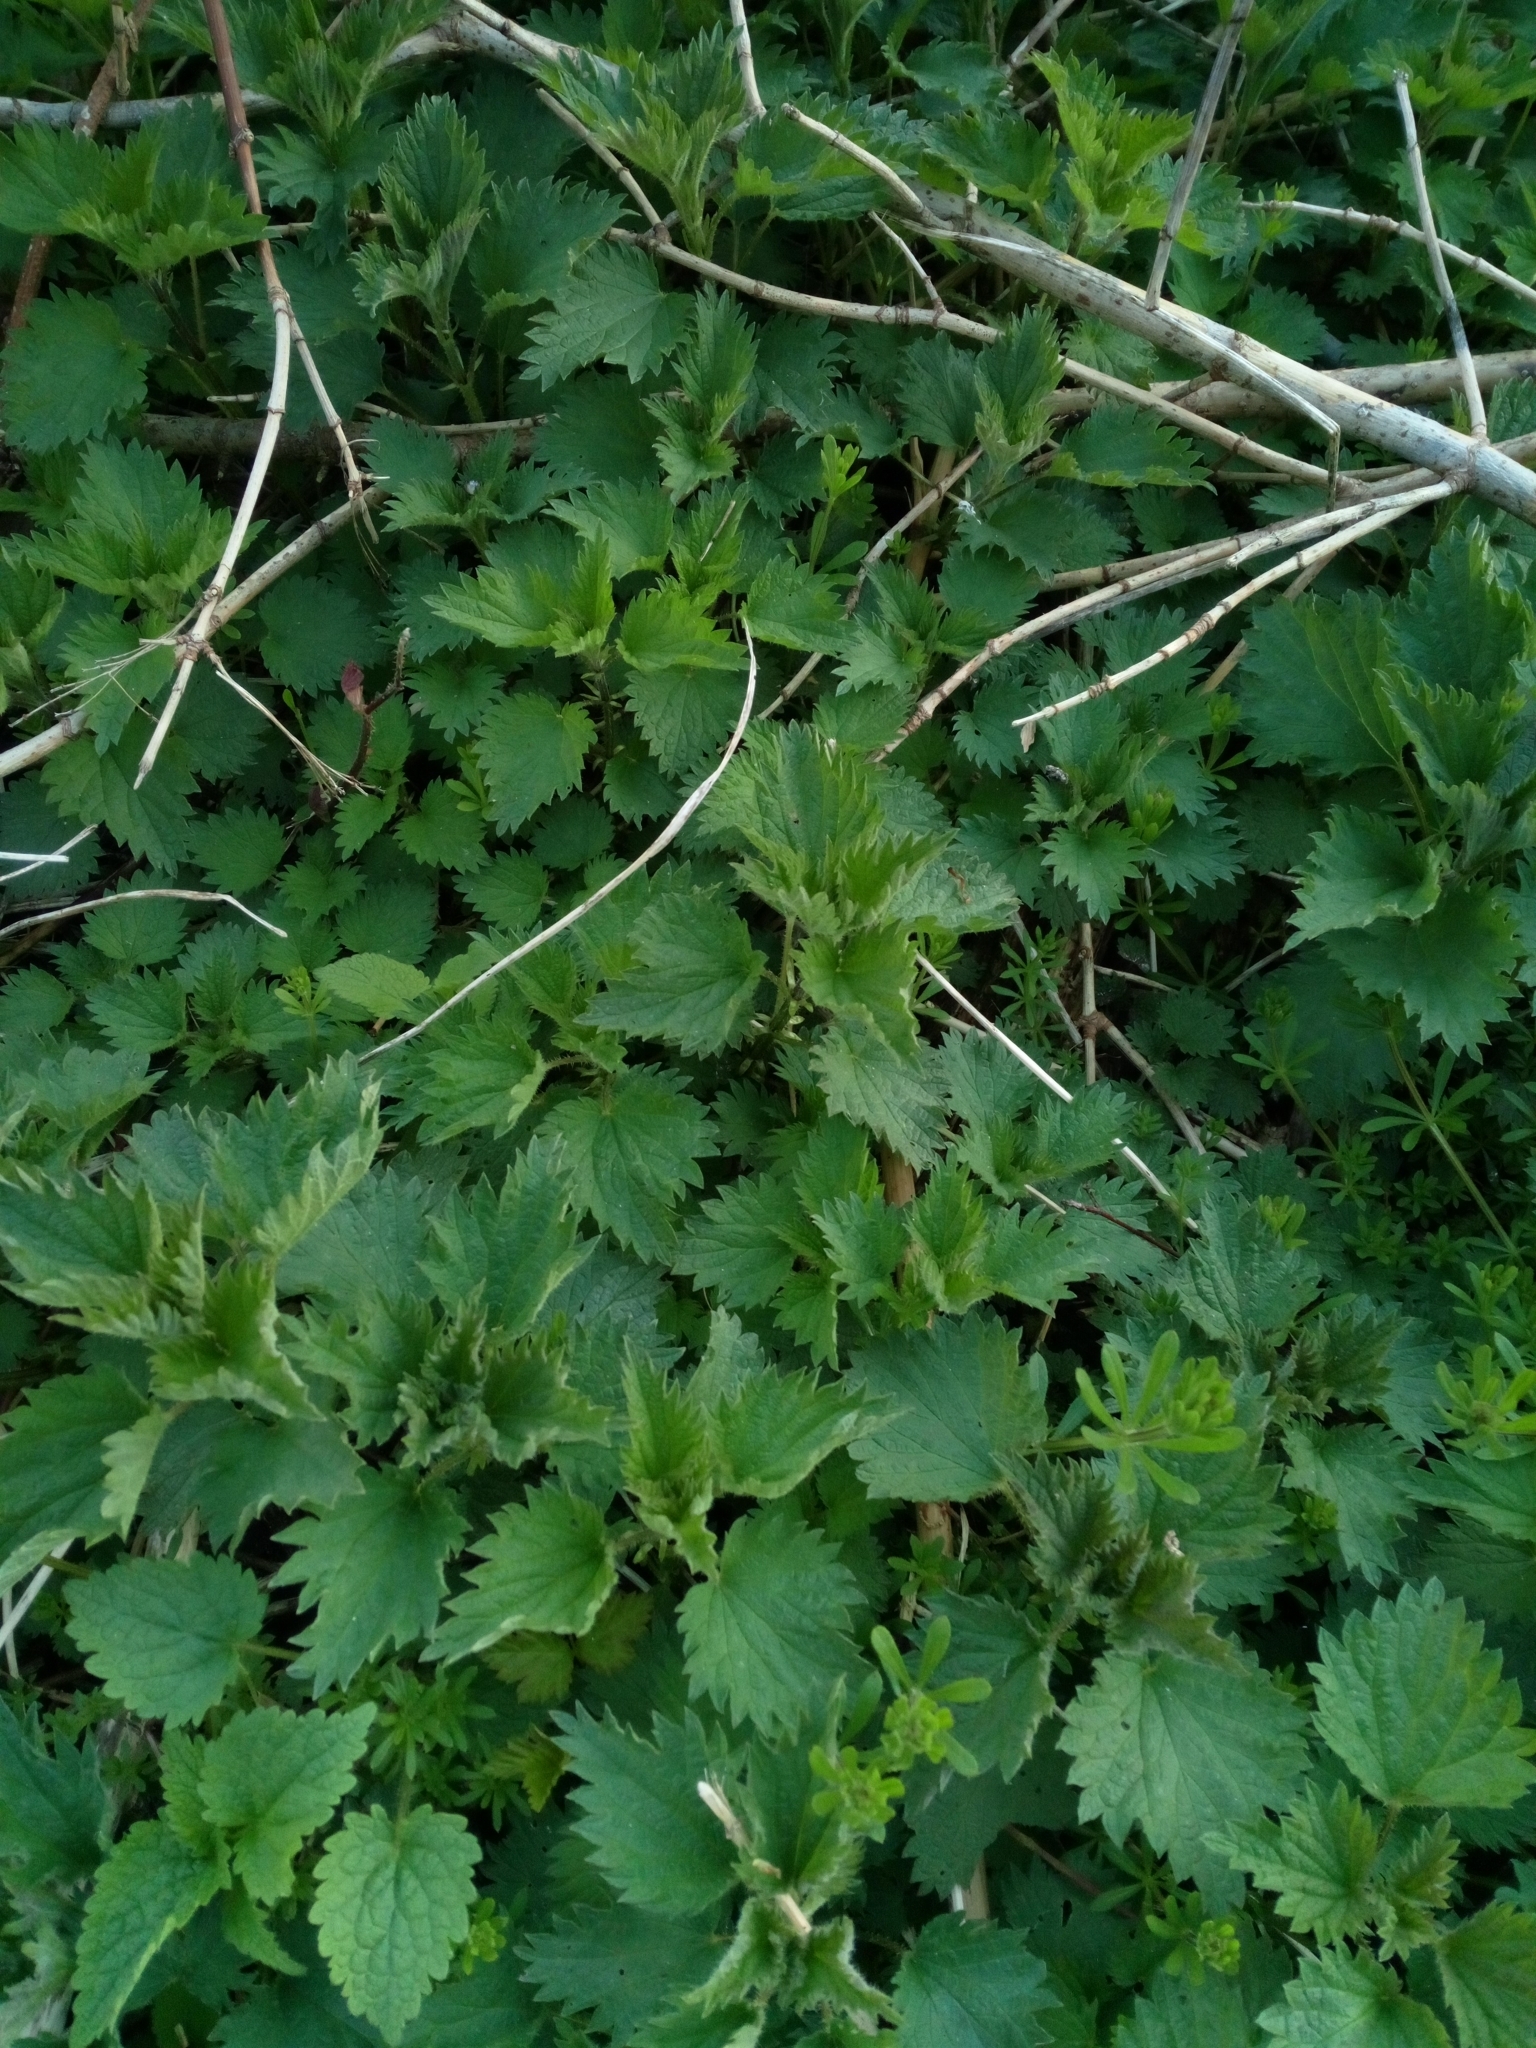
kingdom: Plantae
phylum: Tracheophyta
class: Magnoliopsida
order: Rosales
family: Urticaceae
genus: Urtica
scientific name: Urtica dioica
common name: Common nettle
